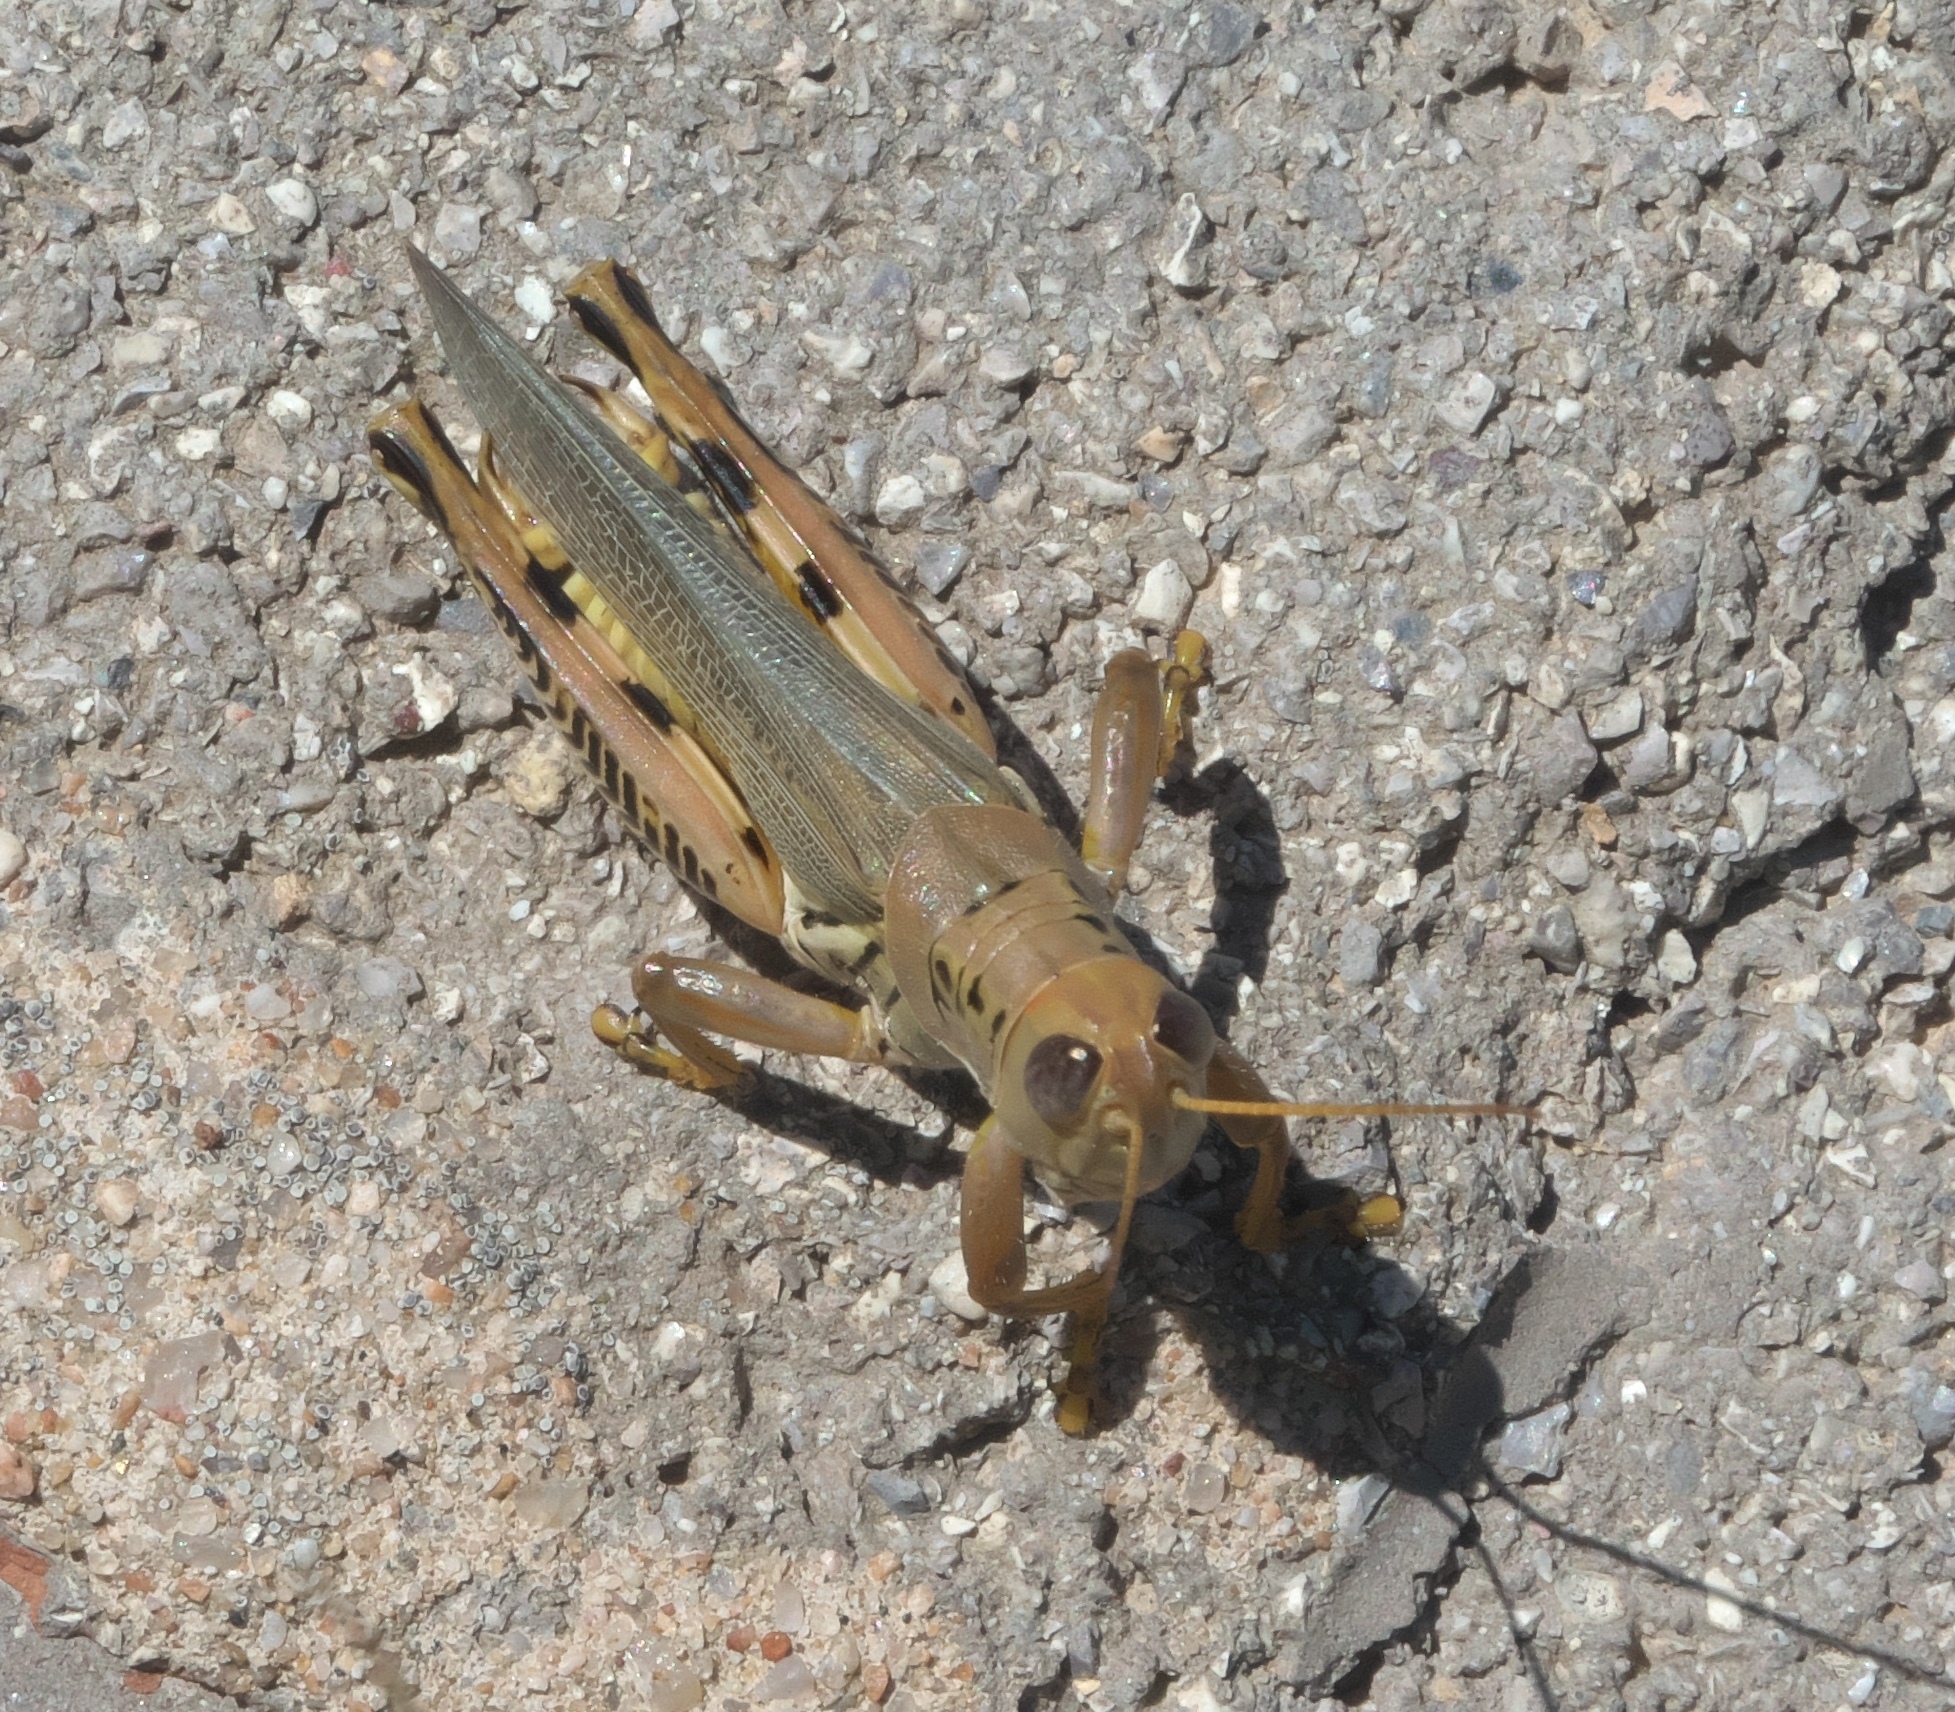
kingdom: Animalia
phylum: Arthropoda
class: Insecta
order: Orthoptera
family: Acrididae
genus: Melanoplus
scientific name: Melanoplus differentialis
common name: Differential grasshopper
